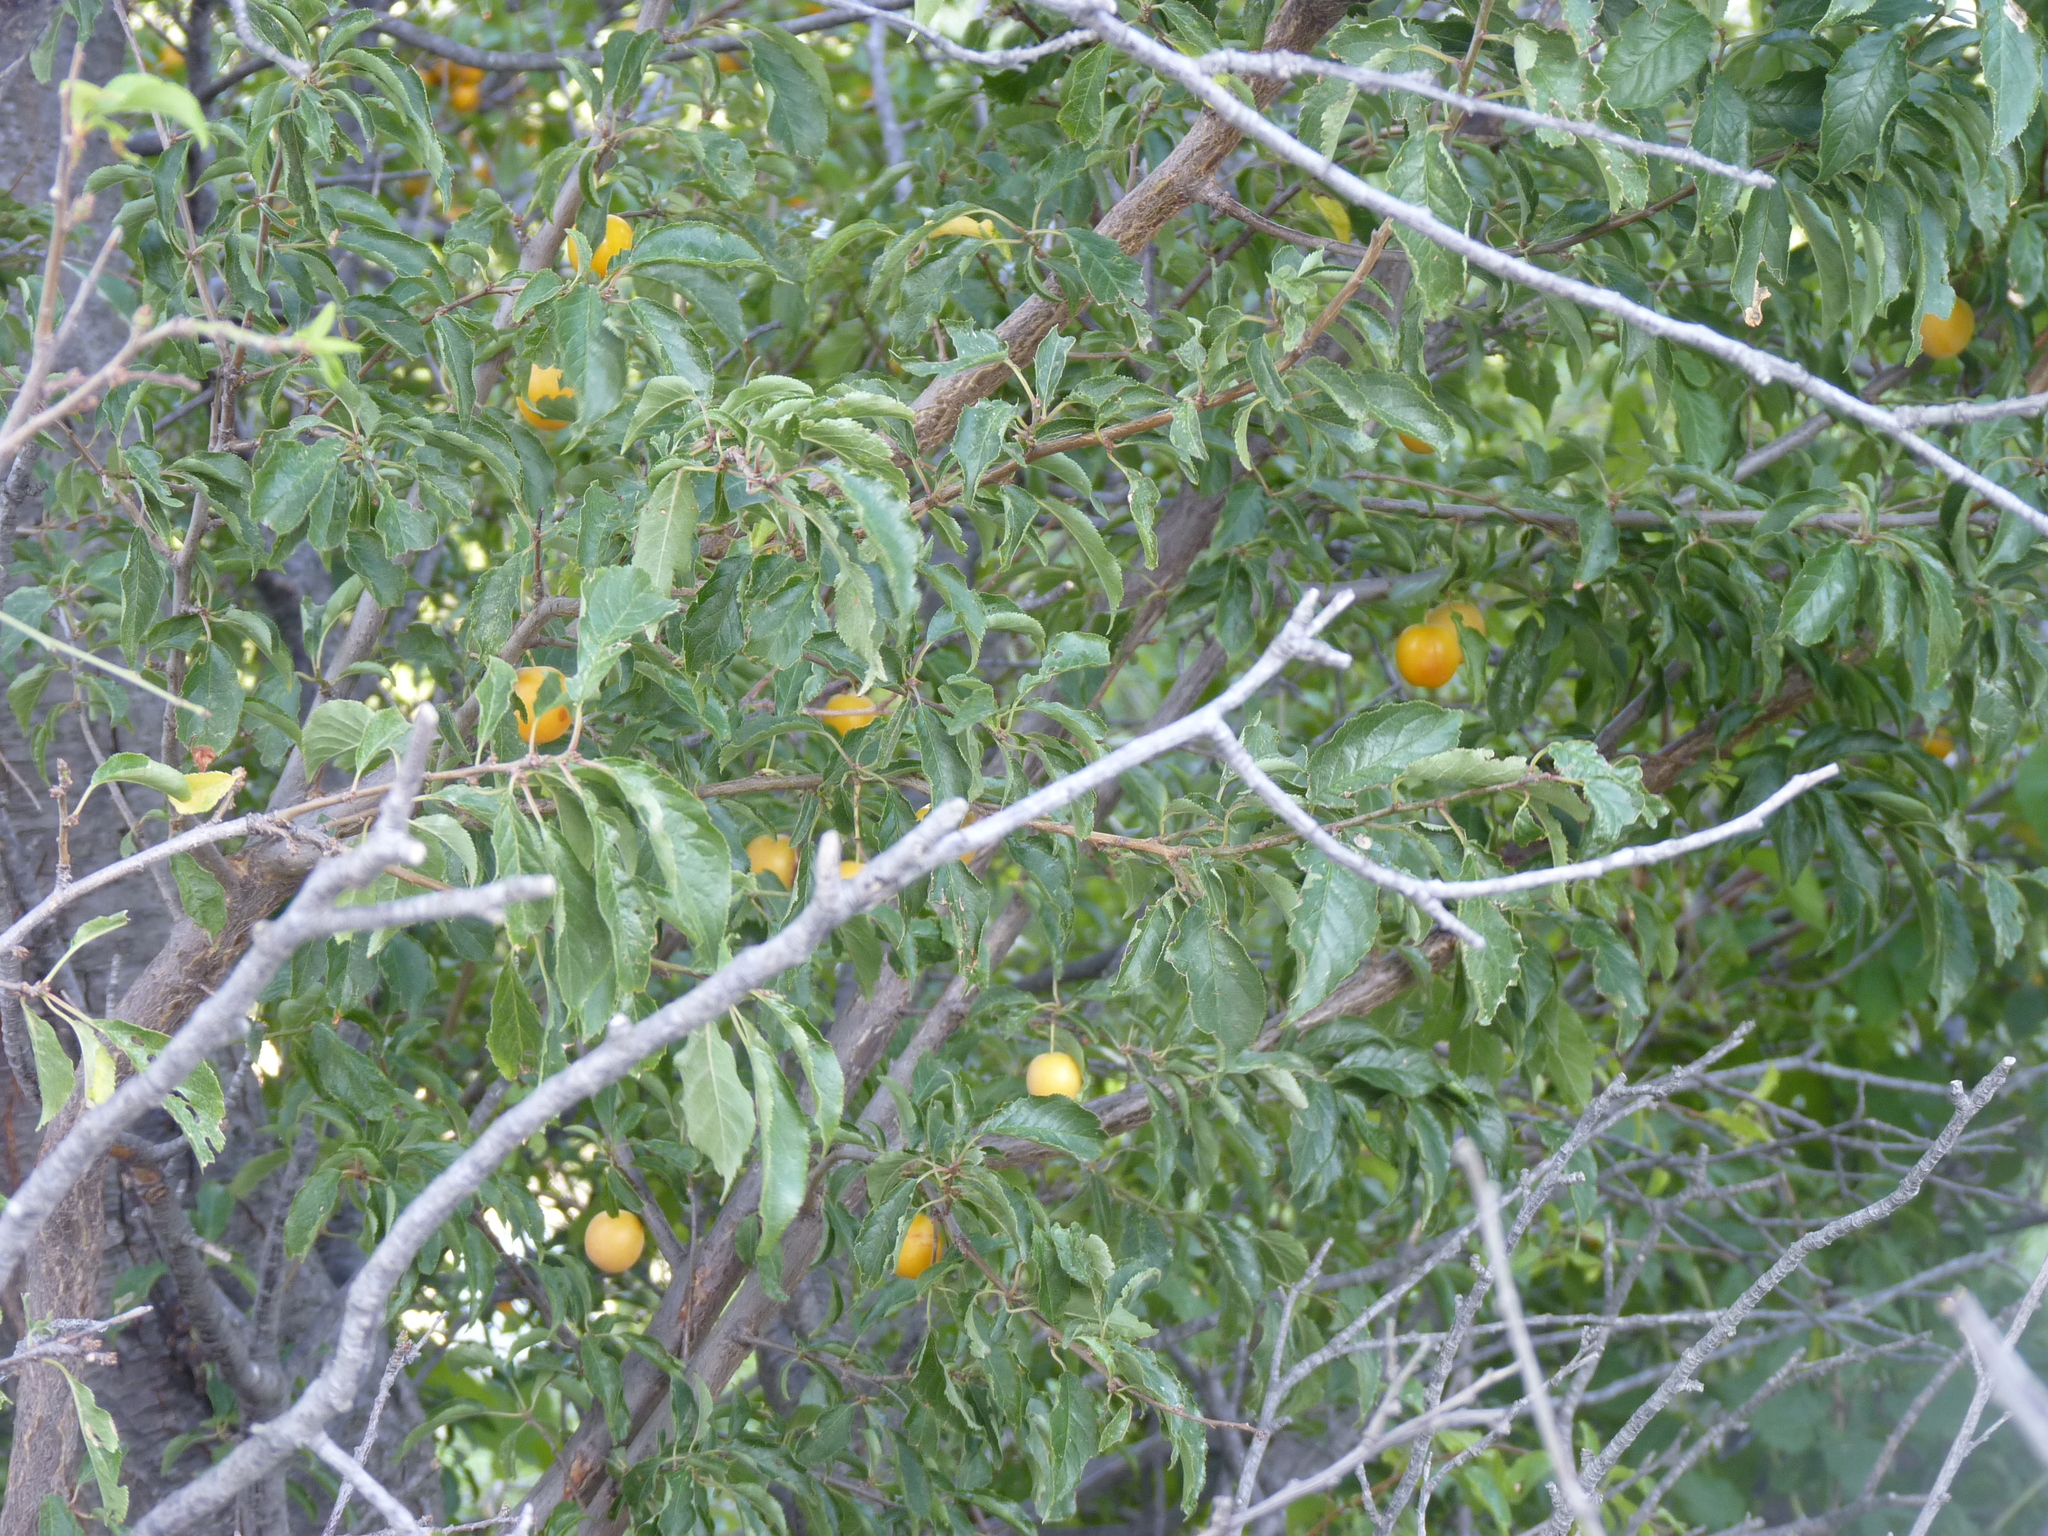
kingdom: Plantae
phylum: Tracheophyta
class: Magnoliopsida
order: Rosales
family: Rosaceae
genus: Prunus
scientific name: Prunus cerasifera
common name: Cherry plum
